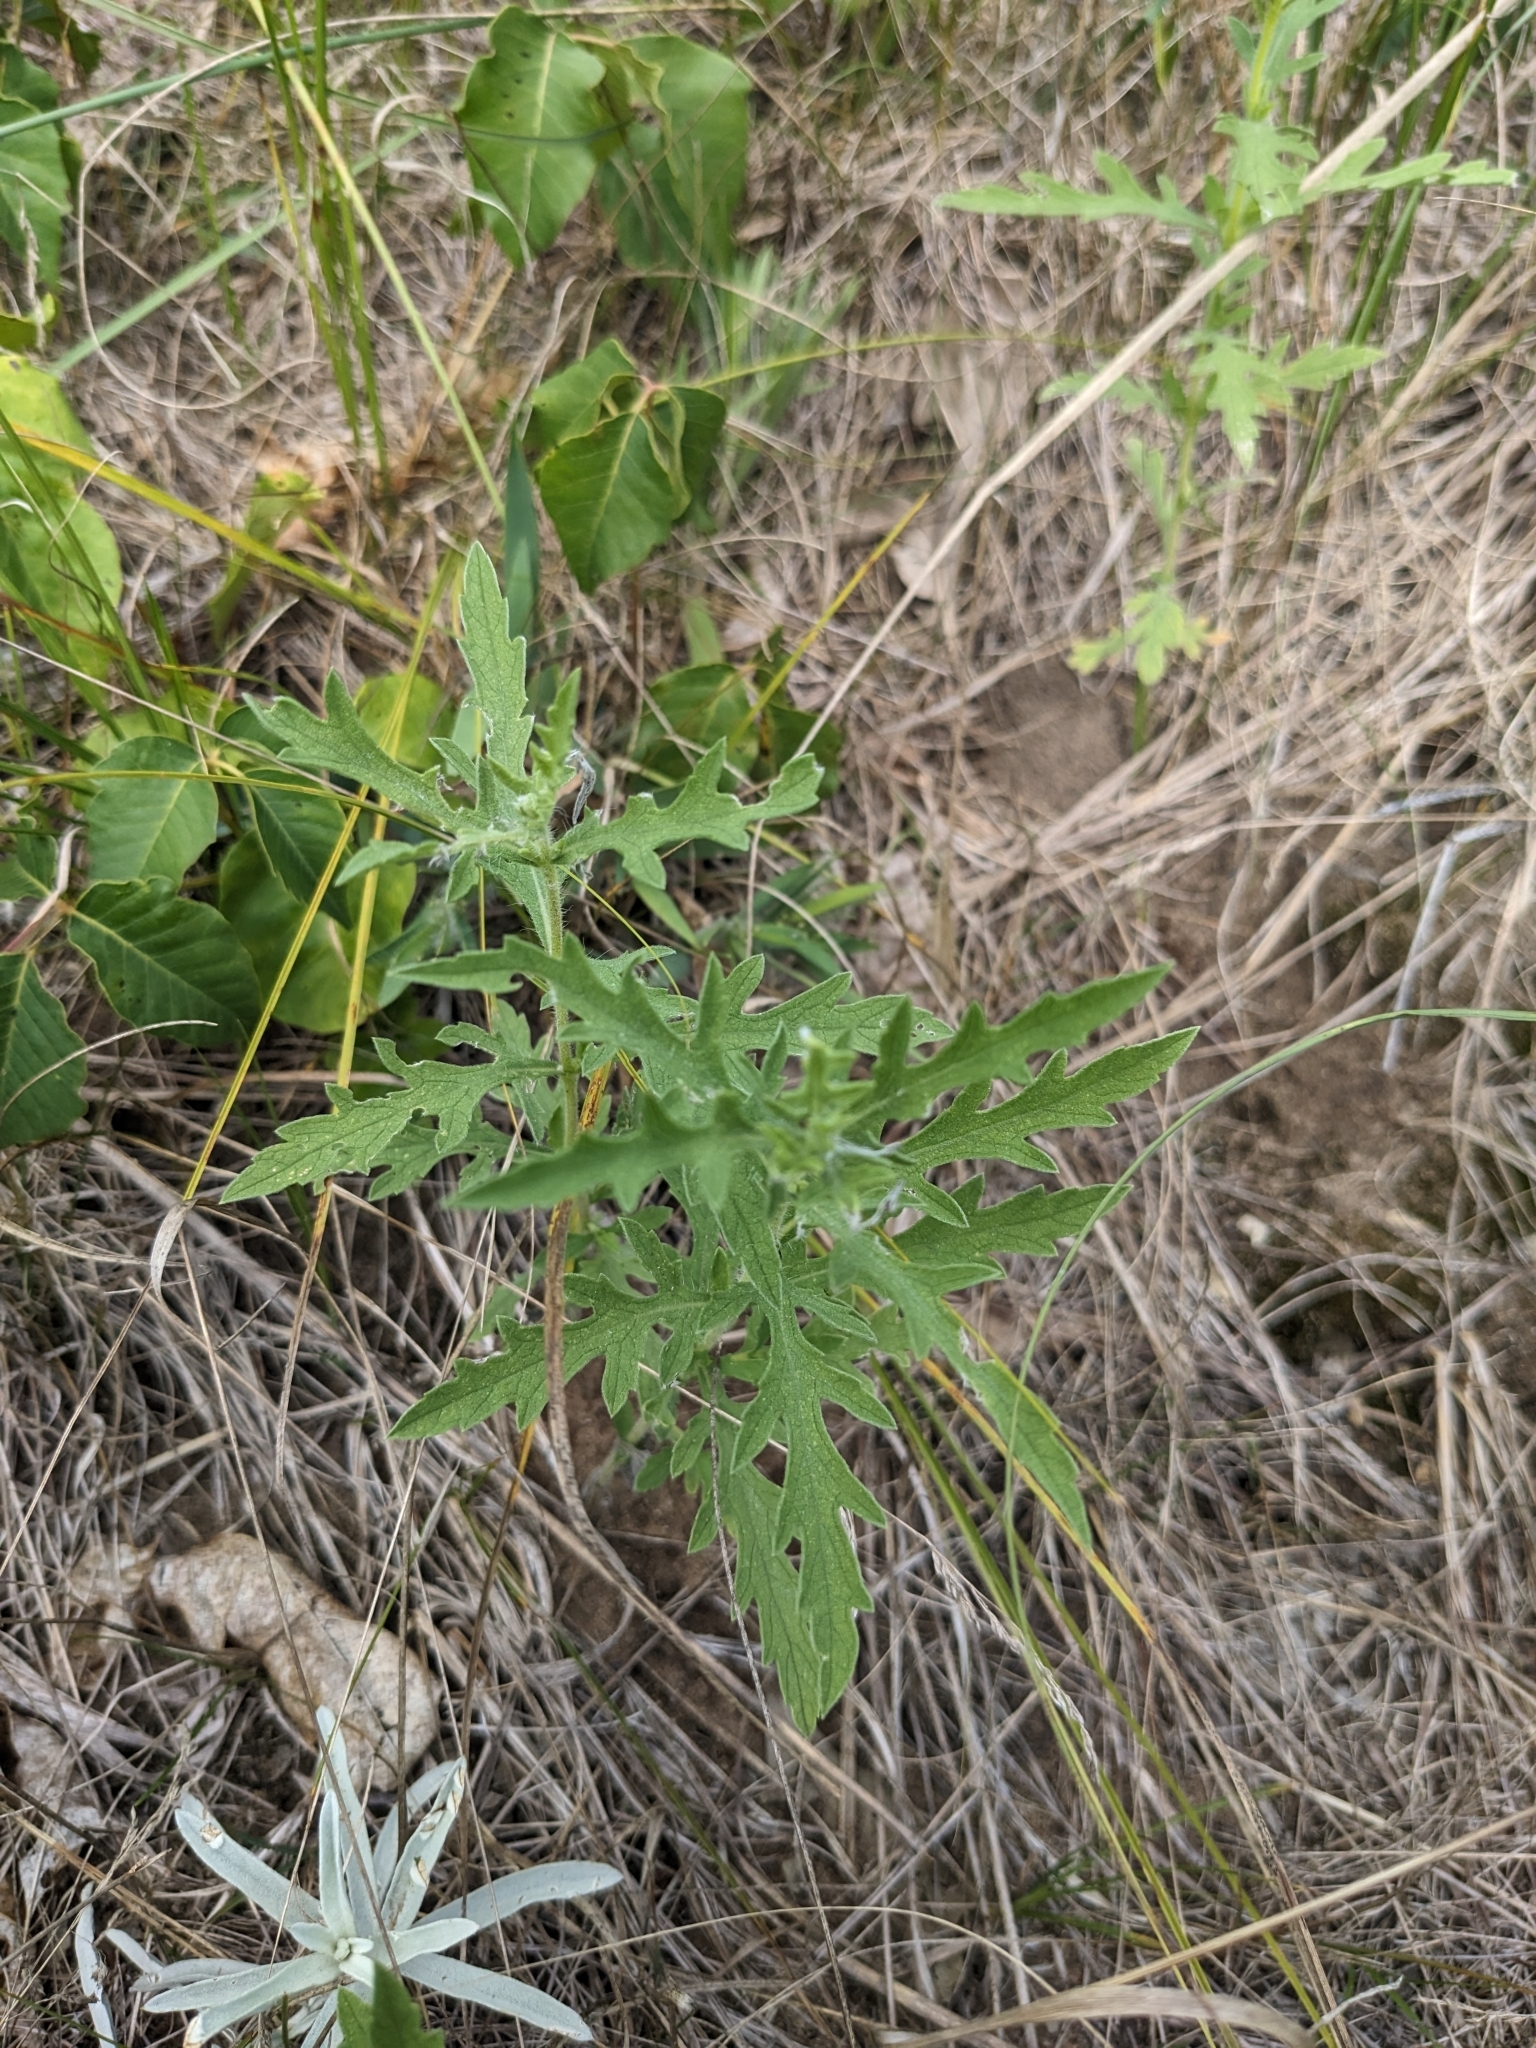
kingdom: Plantae
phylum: Tracheophyta
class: Magnoliopsida
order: Asterales
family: Asteraceae
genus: Ambrosia
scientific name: Ambrosia psilostachya
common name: Perennial ragweed
